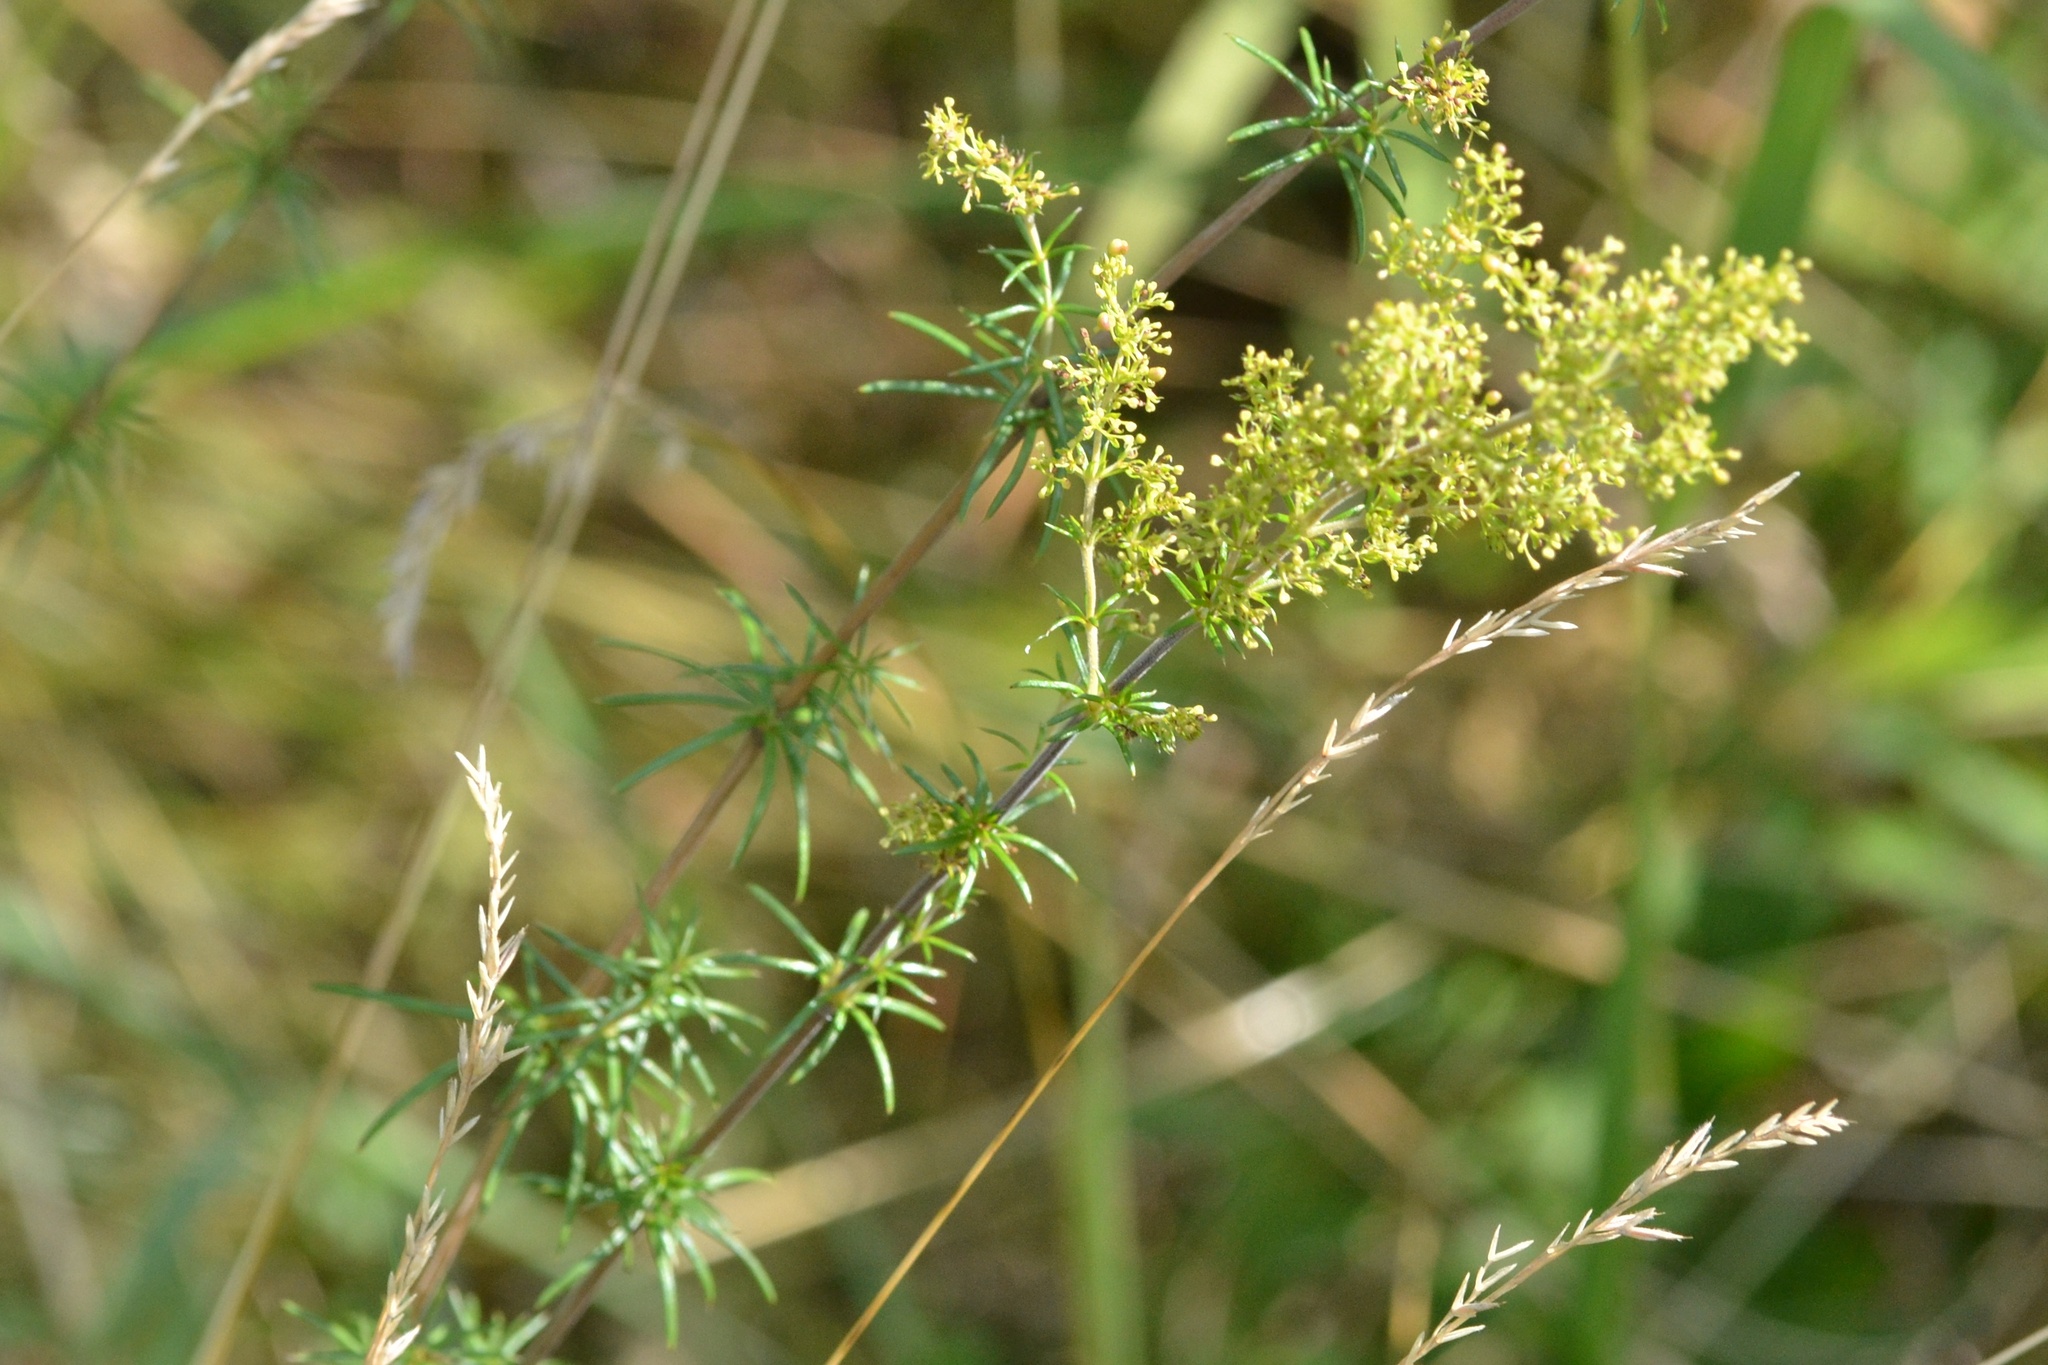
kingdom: Plantae
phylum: Tracheophyta
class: Magnoliopsida
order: Gentianales
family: Rubiaceae
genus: Galium
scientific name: Galium verum
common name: Lady's bedstraw
